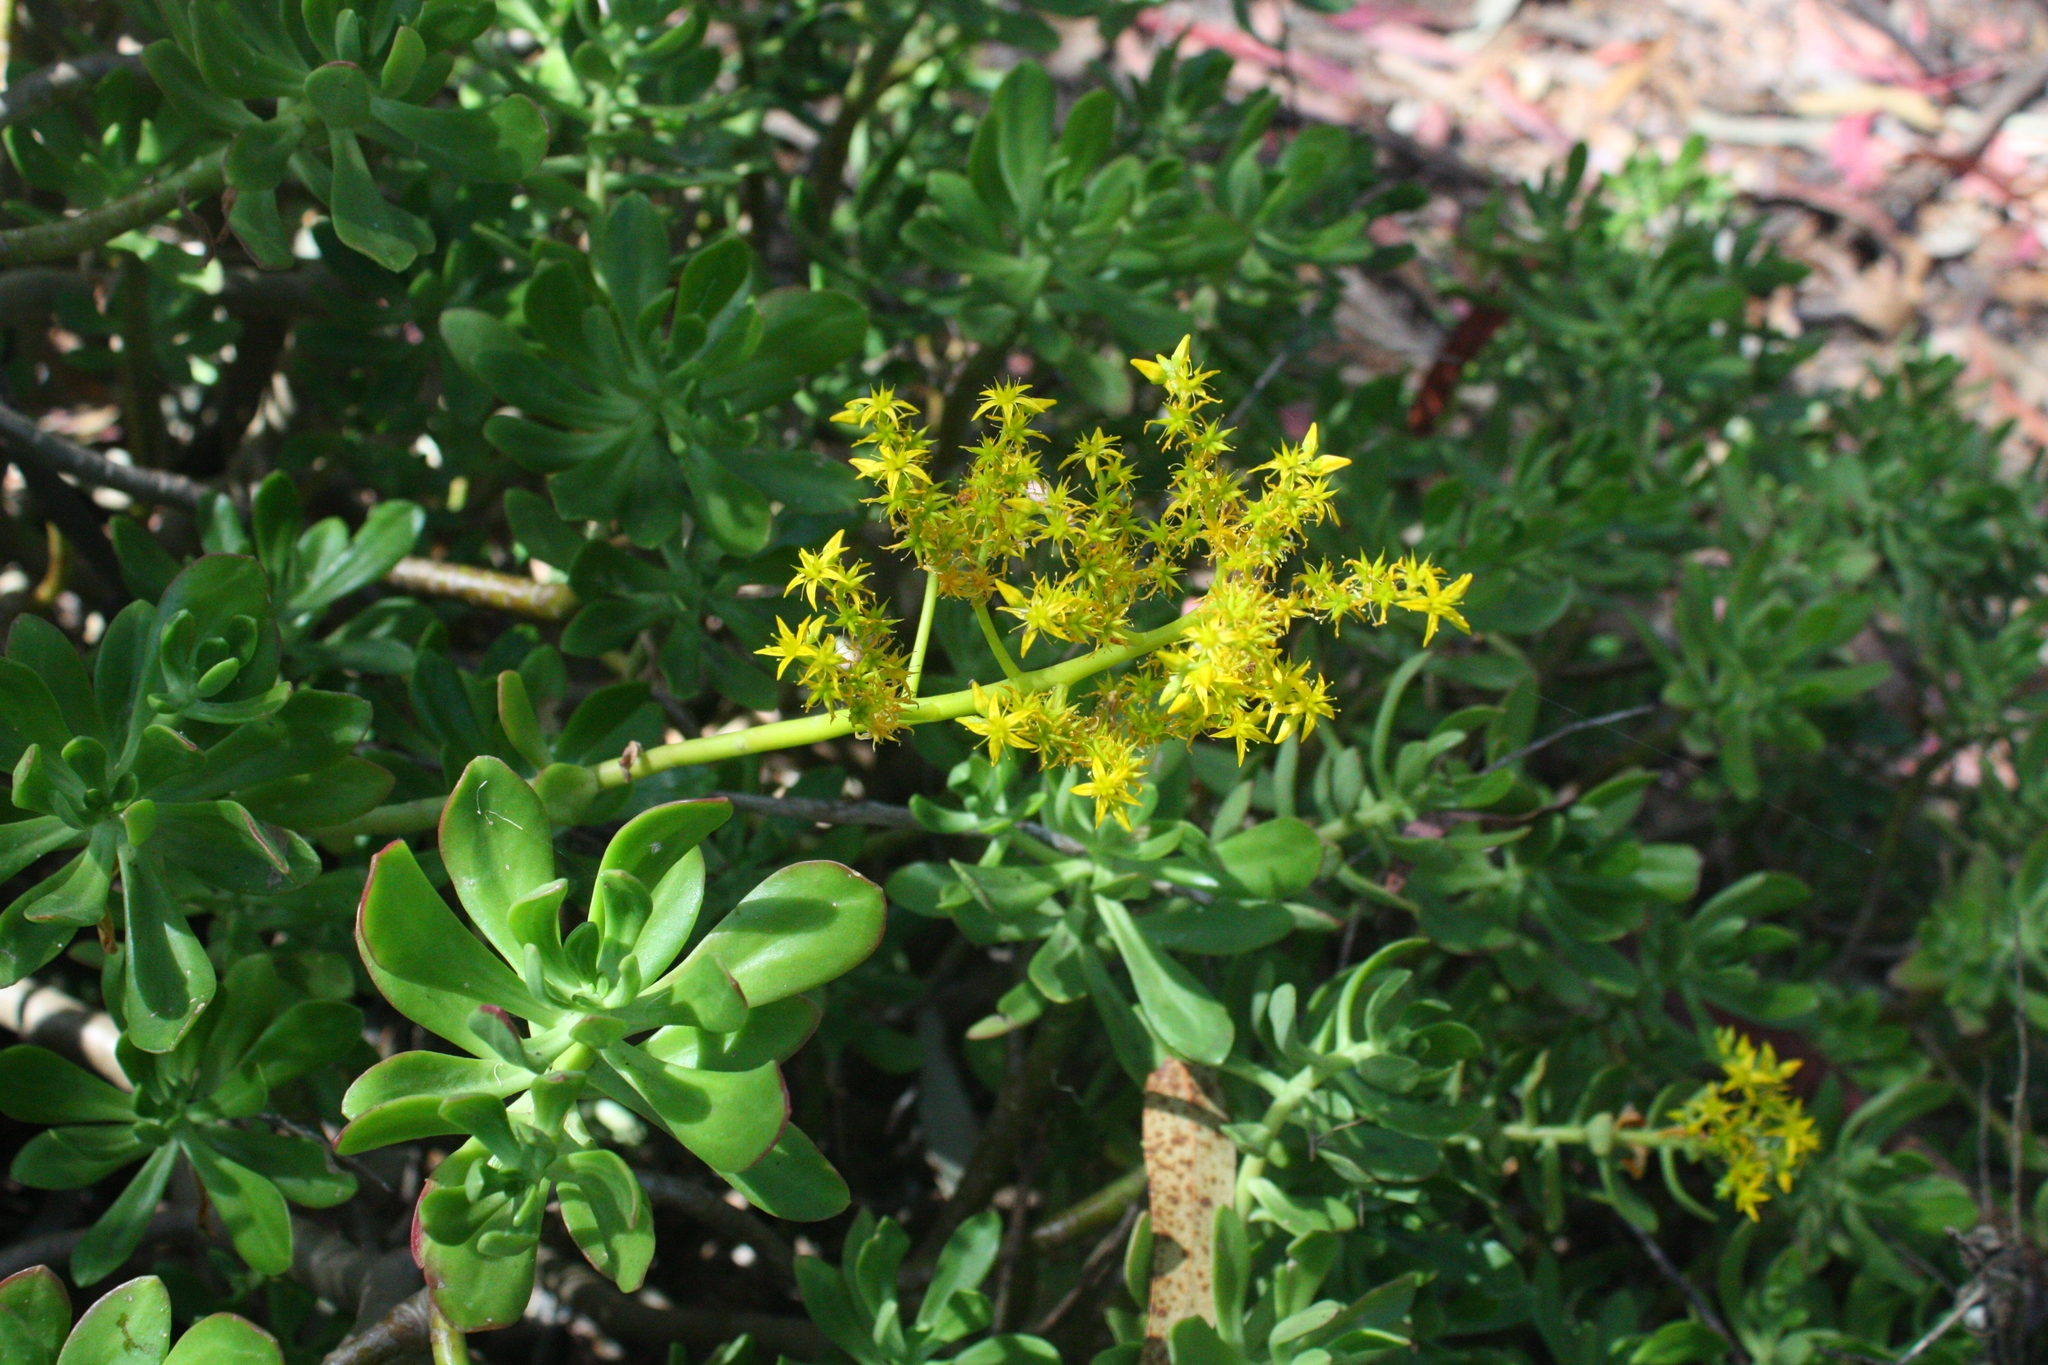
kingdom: Plantae
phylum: Tracheophyta
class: Magnoliopsida
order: Saxifragales
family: Crassulaceae
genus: Sedum
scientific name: Sedum praealtum
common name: Greater mexican-stonecrop
